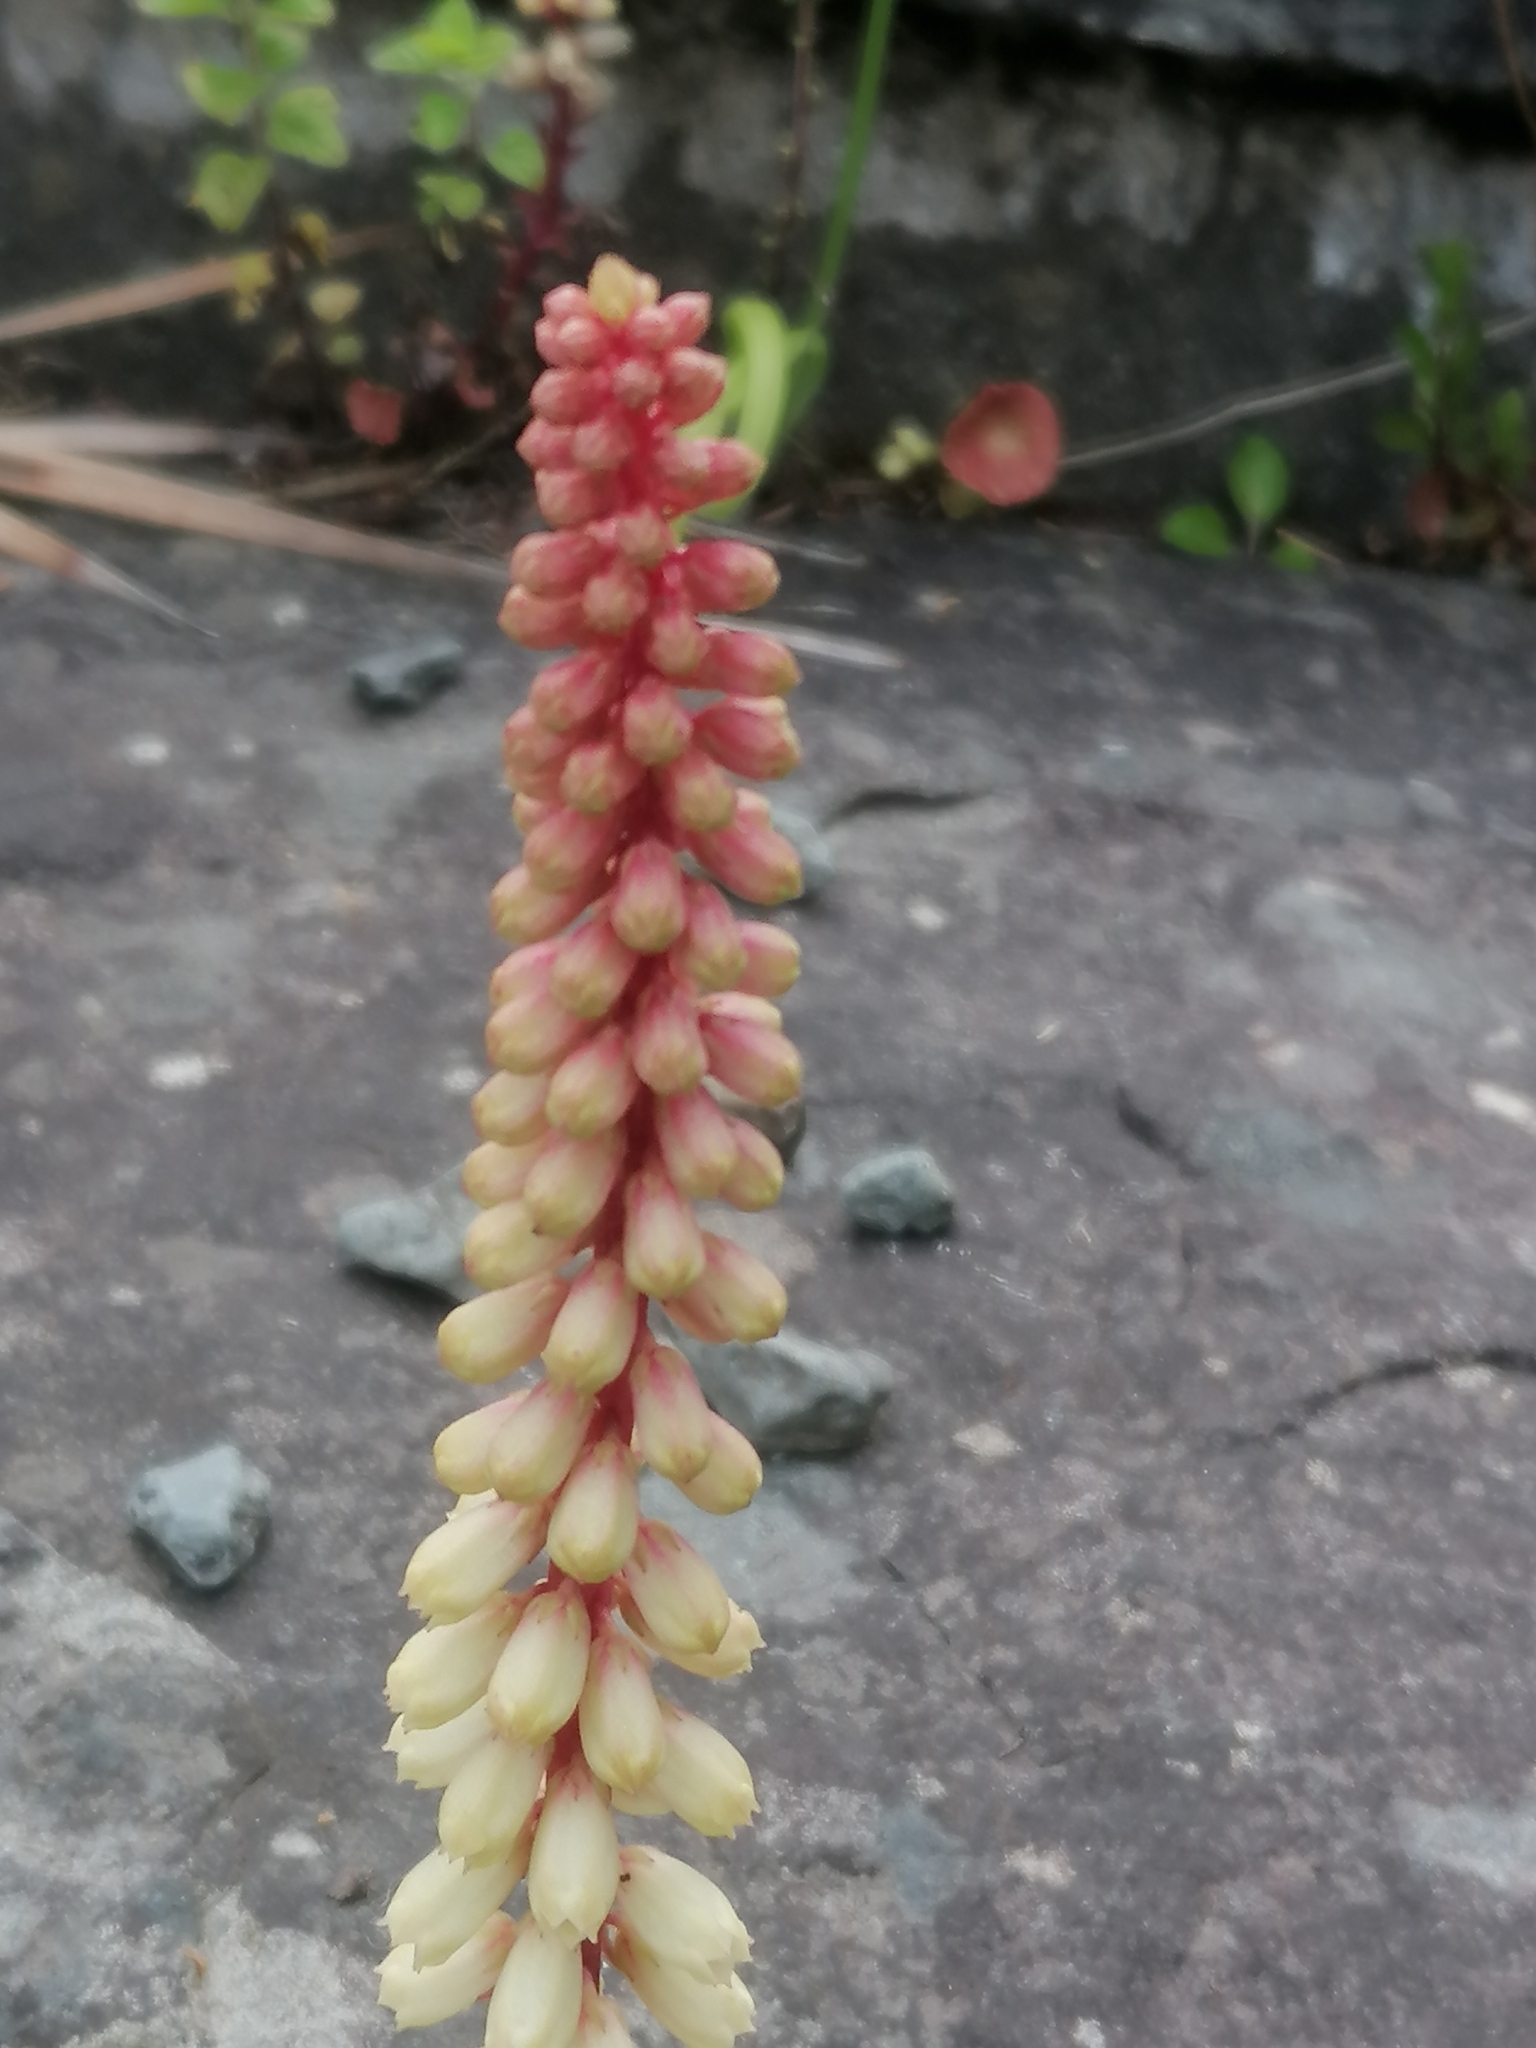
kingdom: Plantae
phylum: Tracheophyta
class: Magnoliopsida
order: Saxifragales
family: Crassulaceae
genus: Umbilicus
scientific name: Umbilicus rupestris
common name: Navelwort
